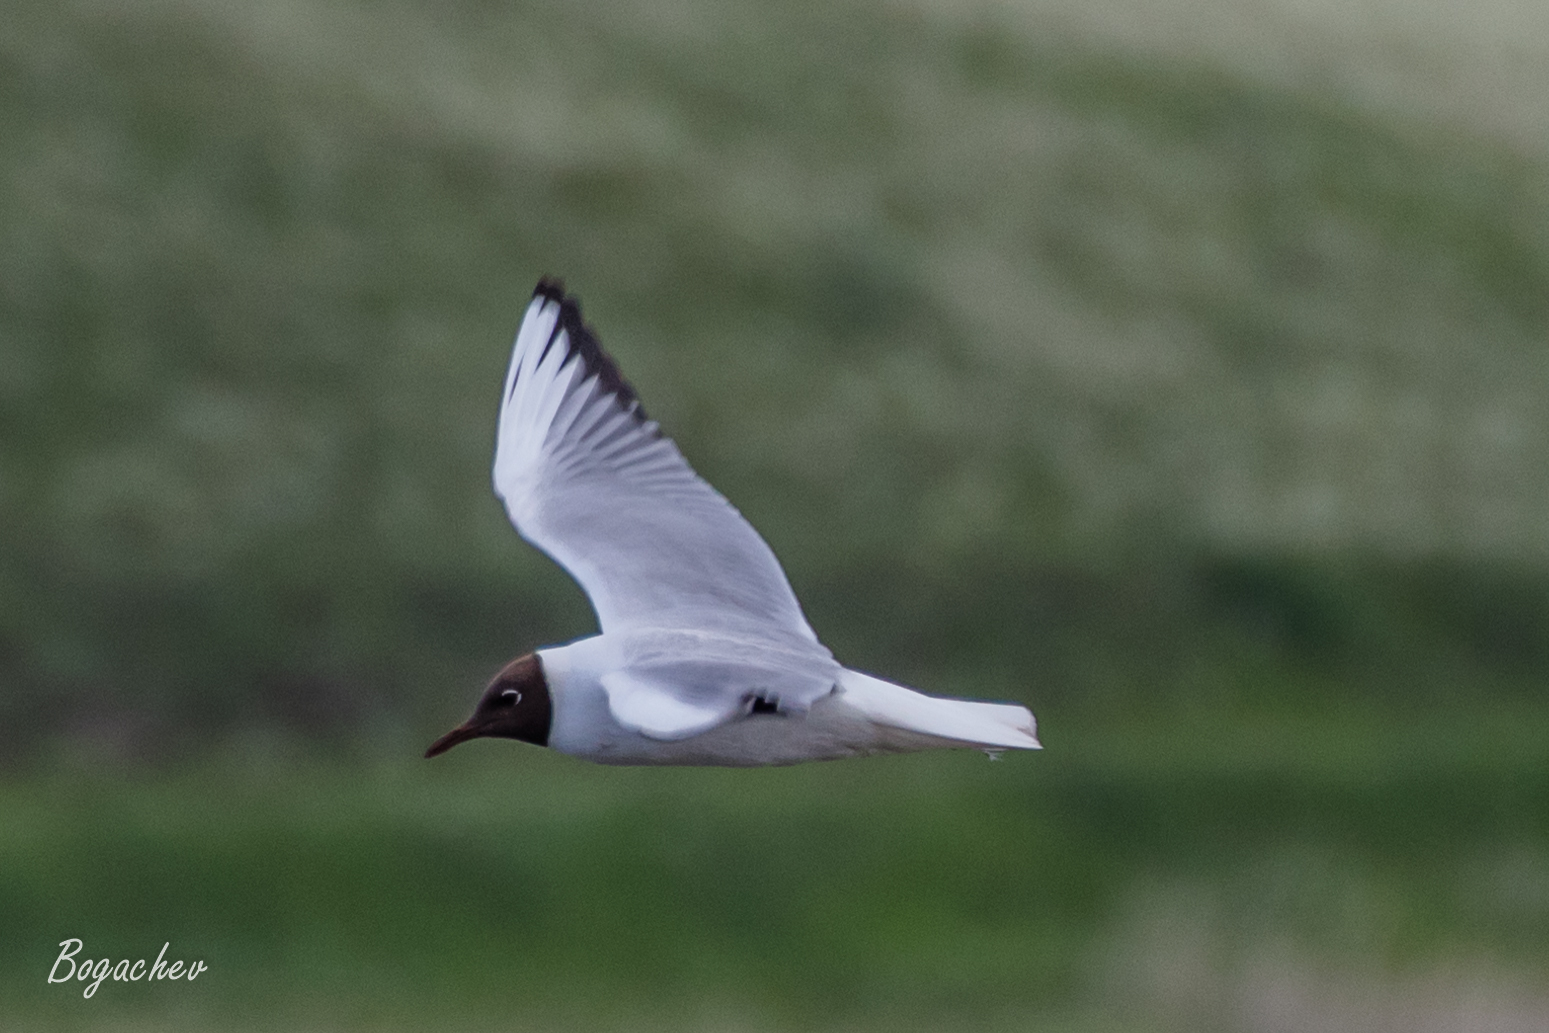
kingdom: Animalia
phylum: Chordata
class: Aves
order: Charadriiformes
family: Laridae
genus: Chroicocephalus
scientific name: Chroicocephalus ridibundus
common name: Black-headed gull
